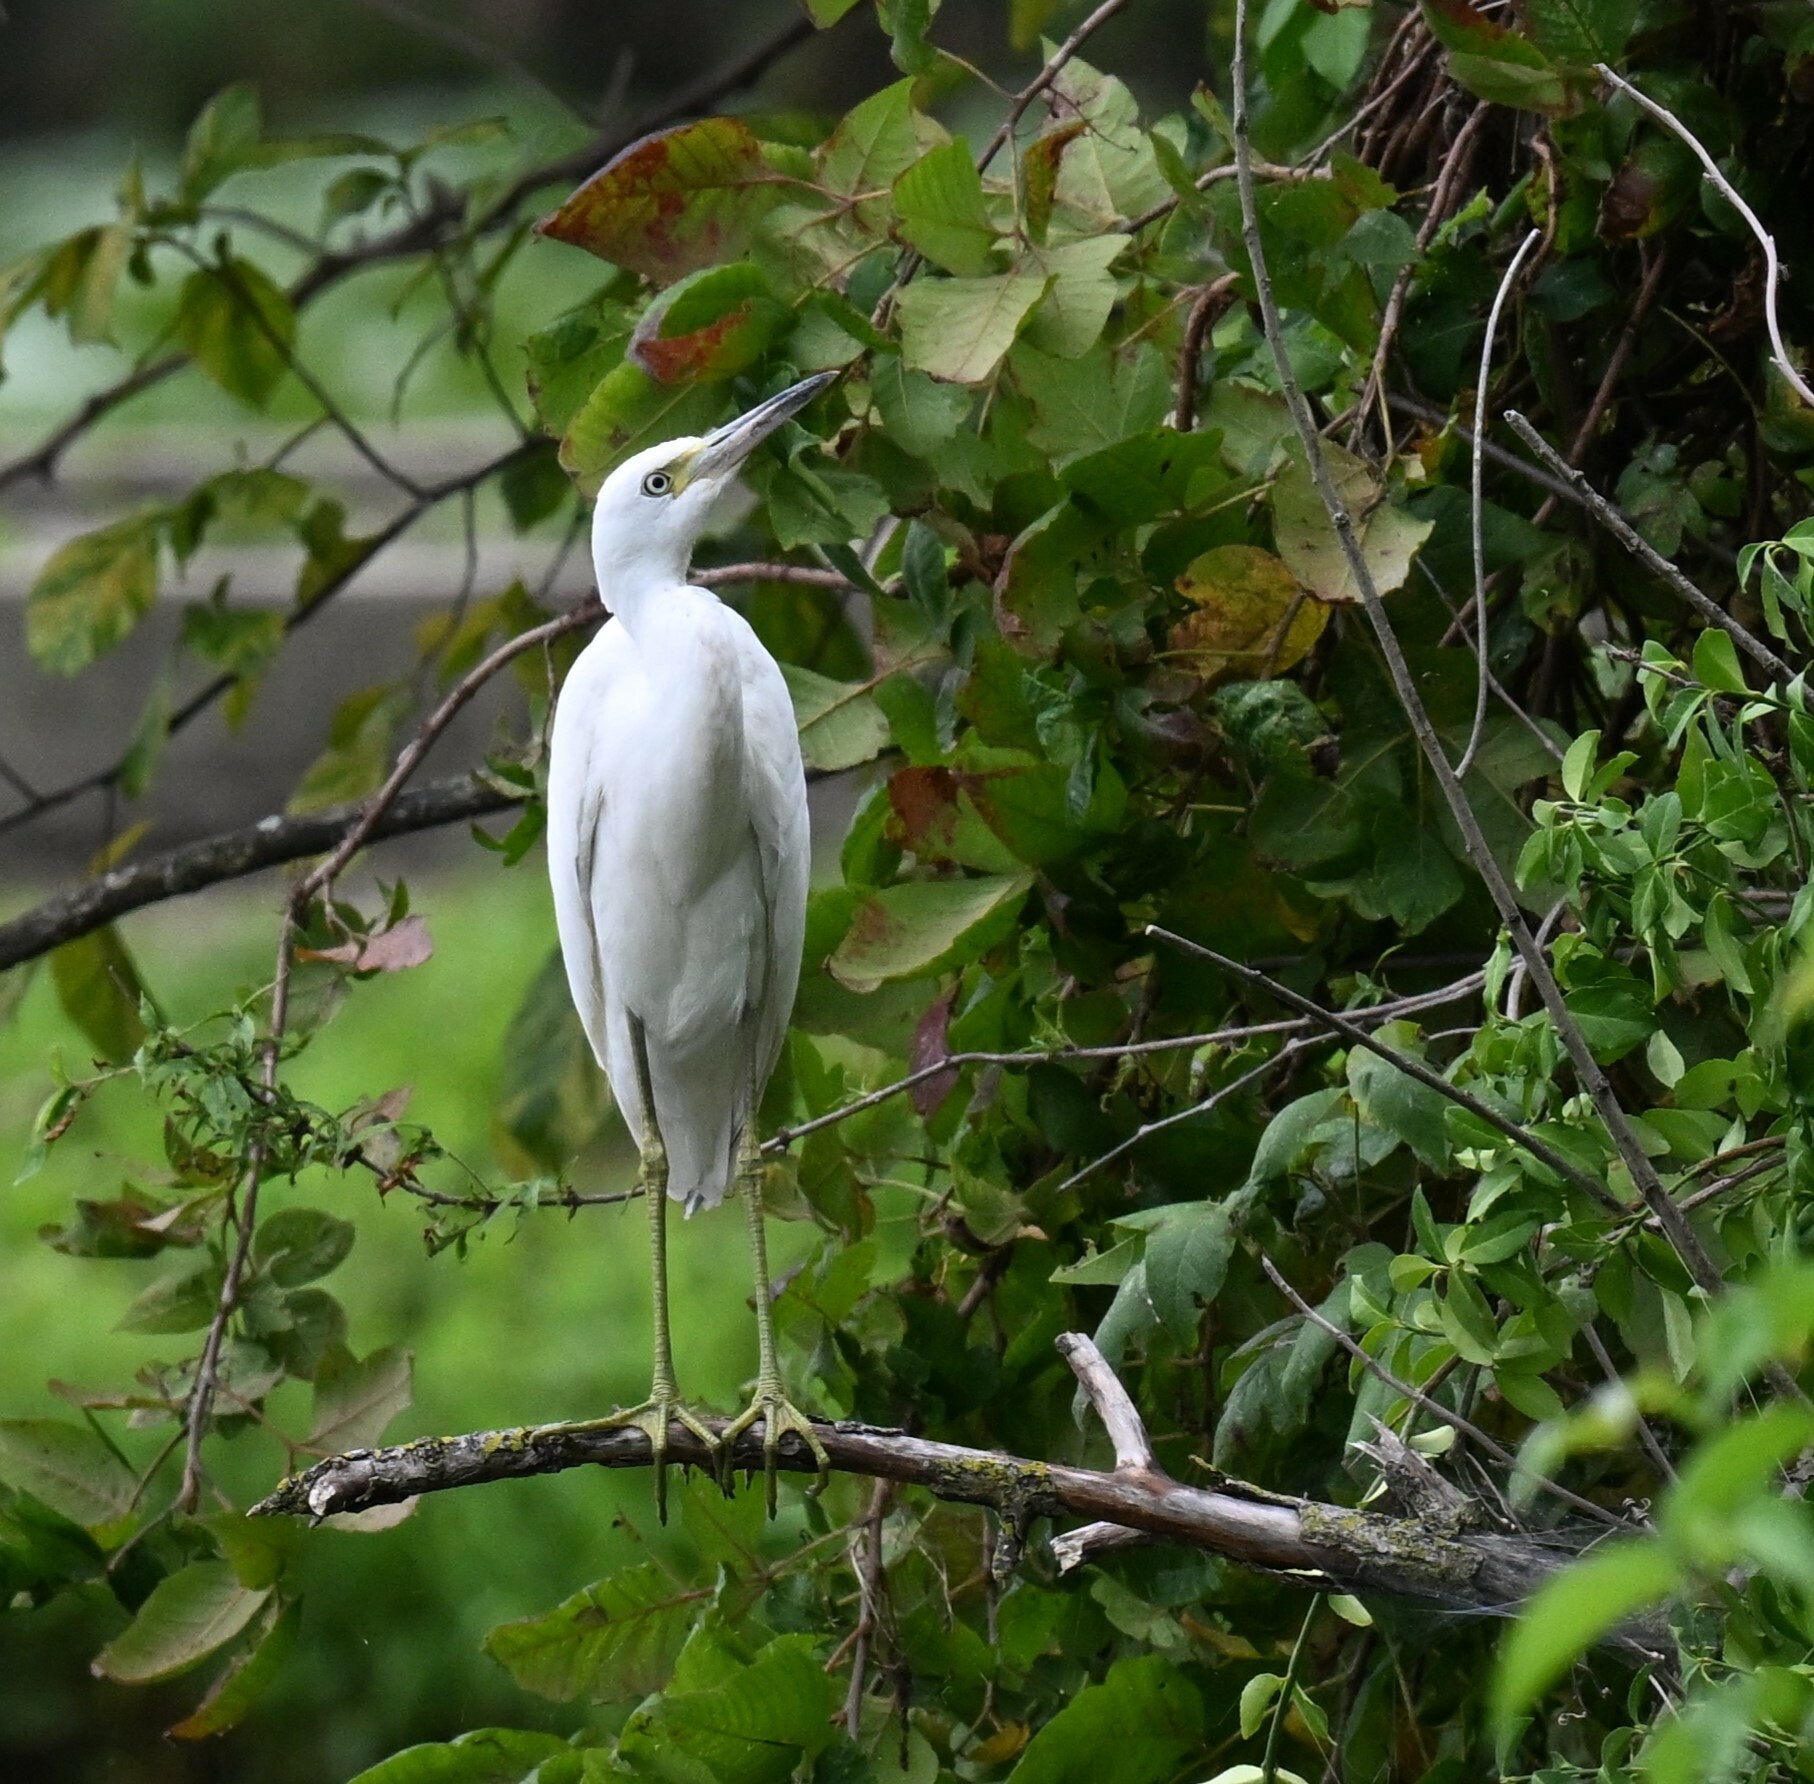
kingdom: Animalia
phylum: Chordata
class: Aves
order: Pelecaniformes
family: Ardeidae
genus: Egretta
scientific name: Egretta caerulea
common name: Little blue heron
